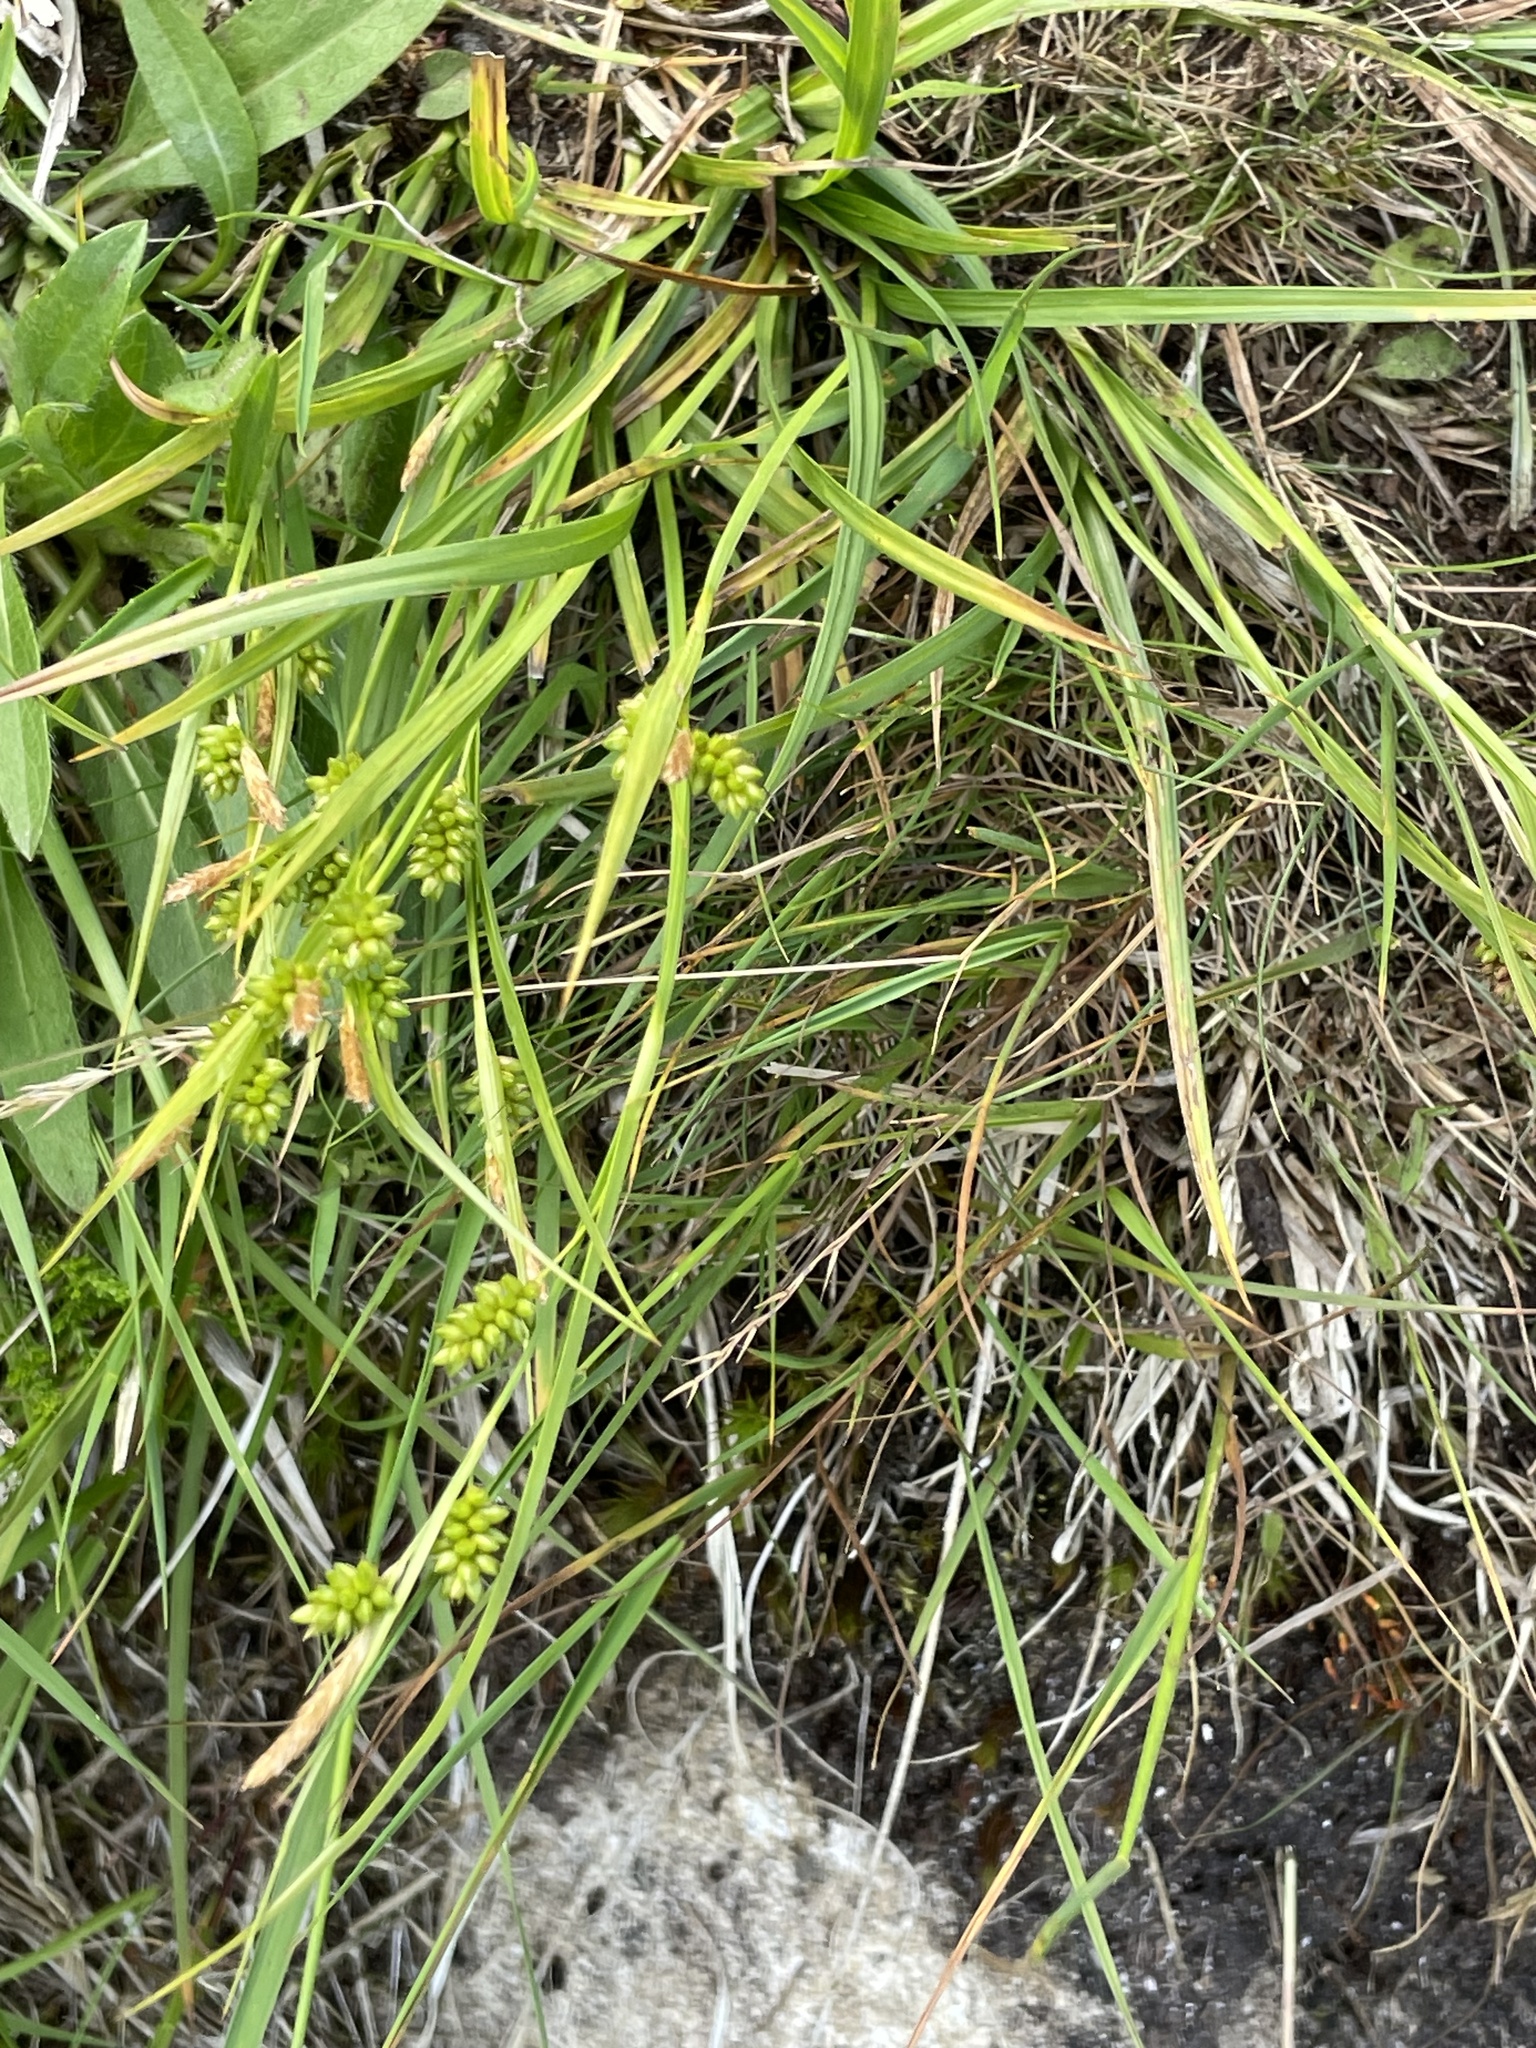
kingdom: Plantae
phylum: Tracheophyta
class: Liliopsida
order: Poales
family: Cyperaceae
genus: Carex
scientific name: Carex pallescens
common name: Pale sedge
